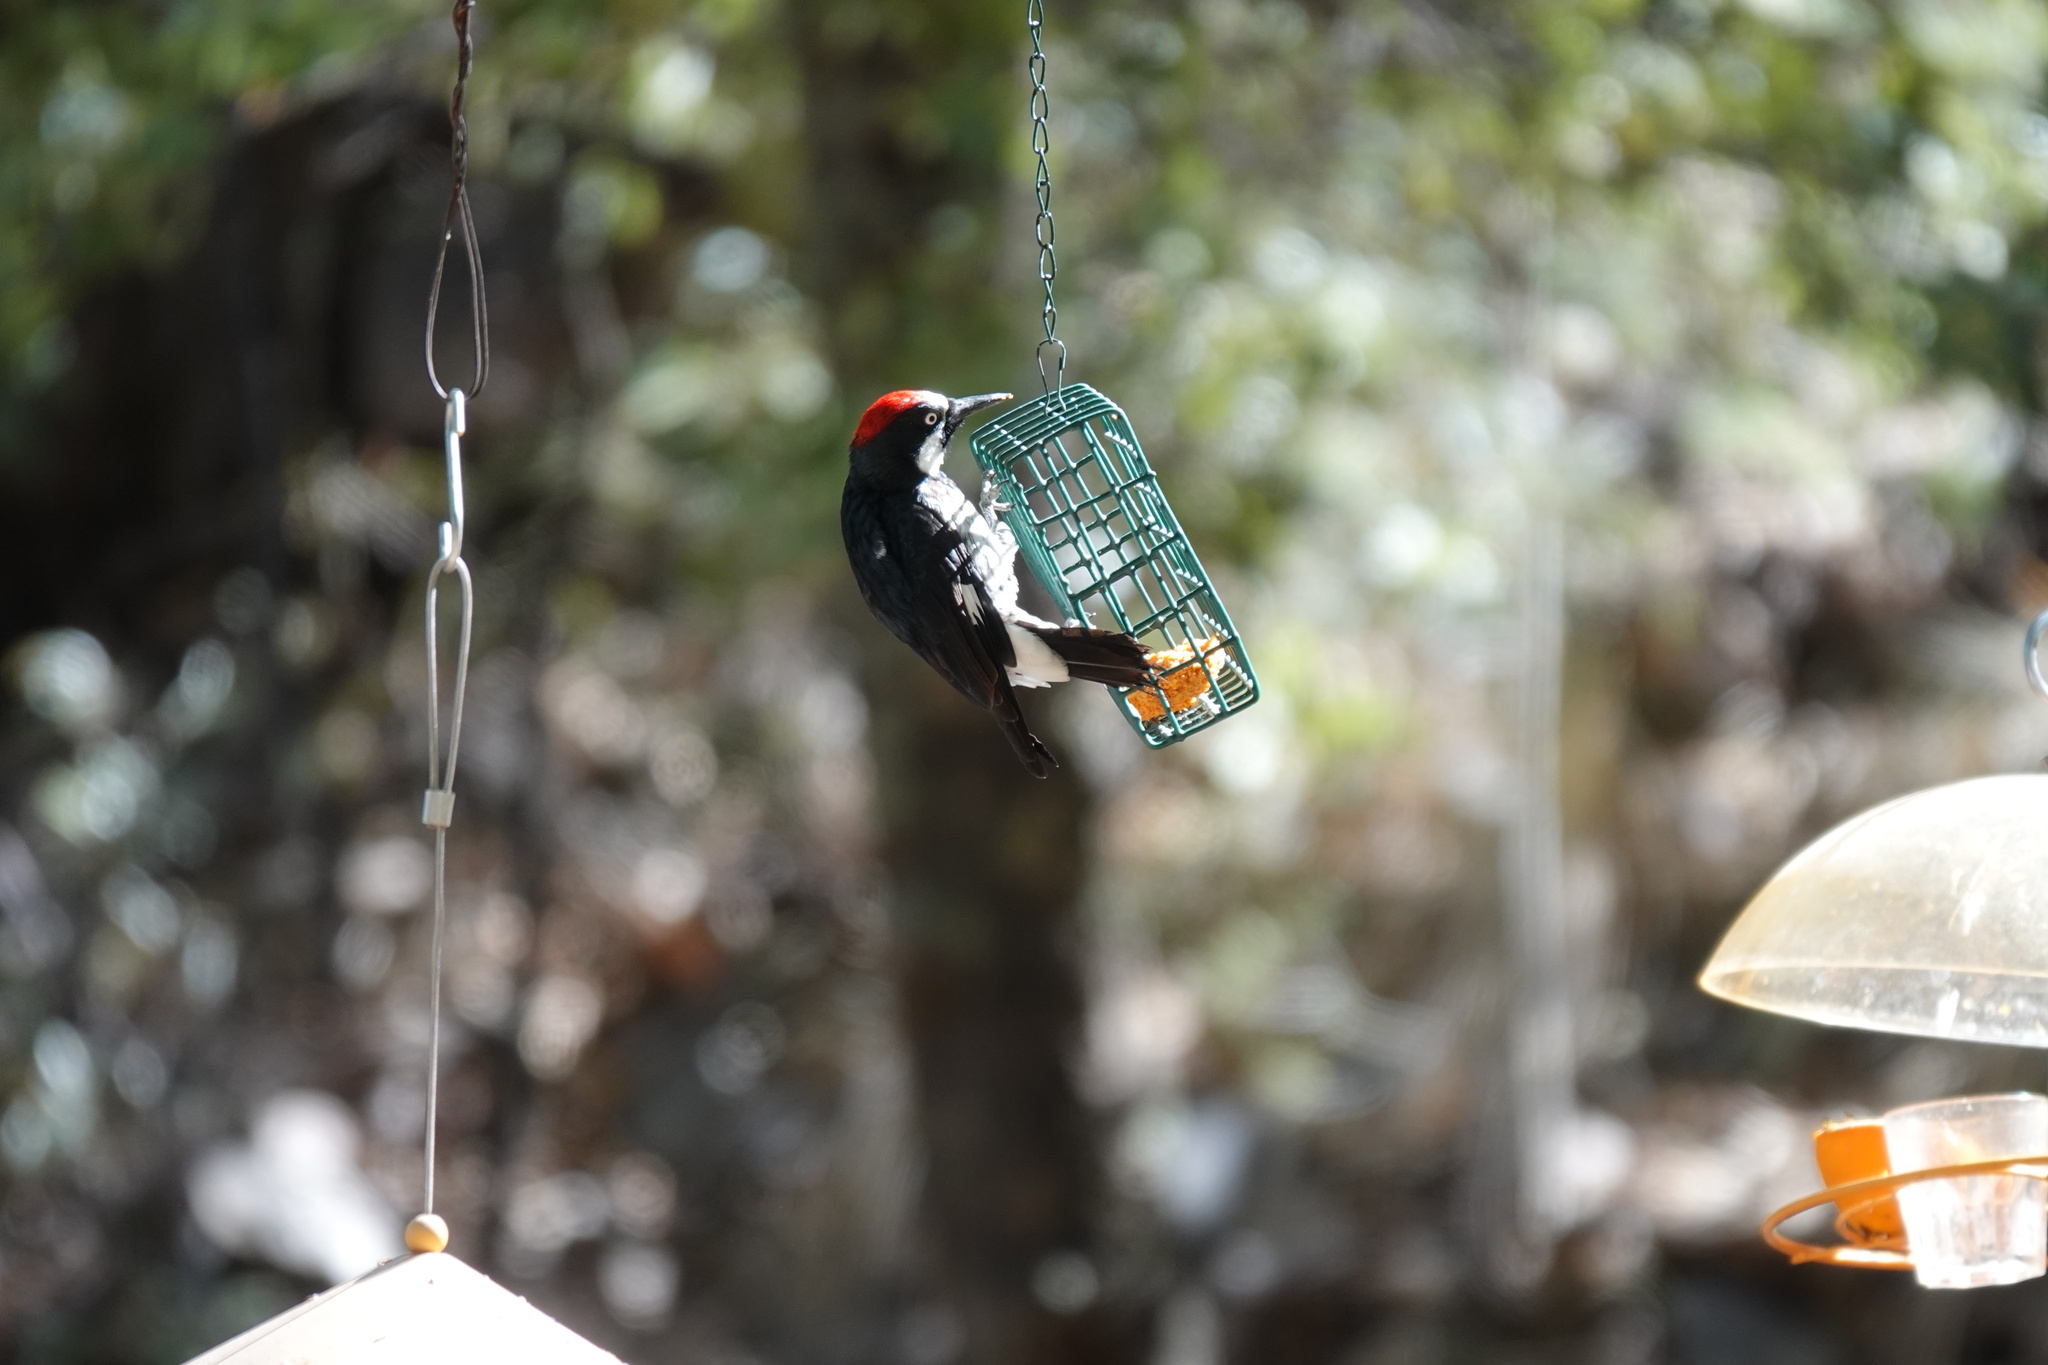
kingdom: Animalia
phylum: Chordata
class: Aves
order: Piciformes
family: Picidae
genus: Melanerpes
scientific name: Melanerpes formicivorus
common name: Acorn woodpecker
